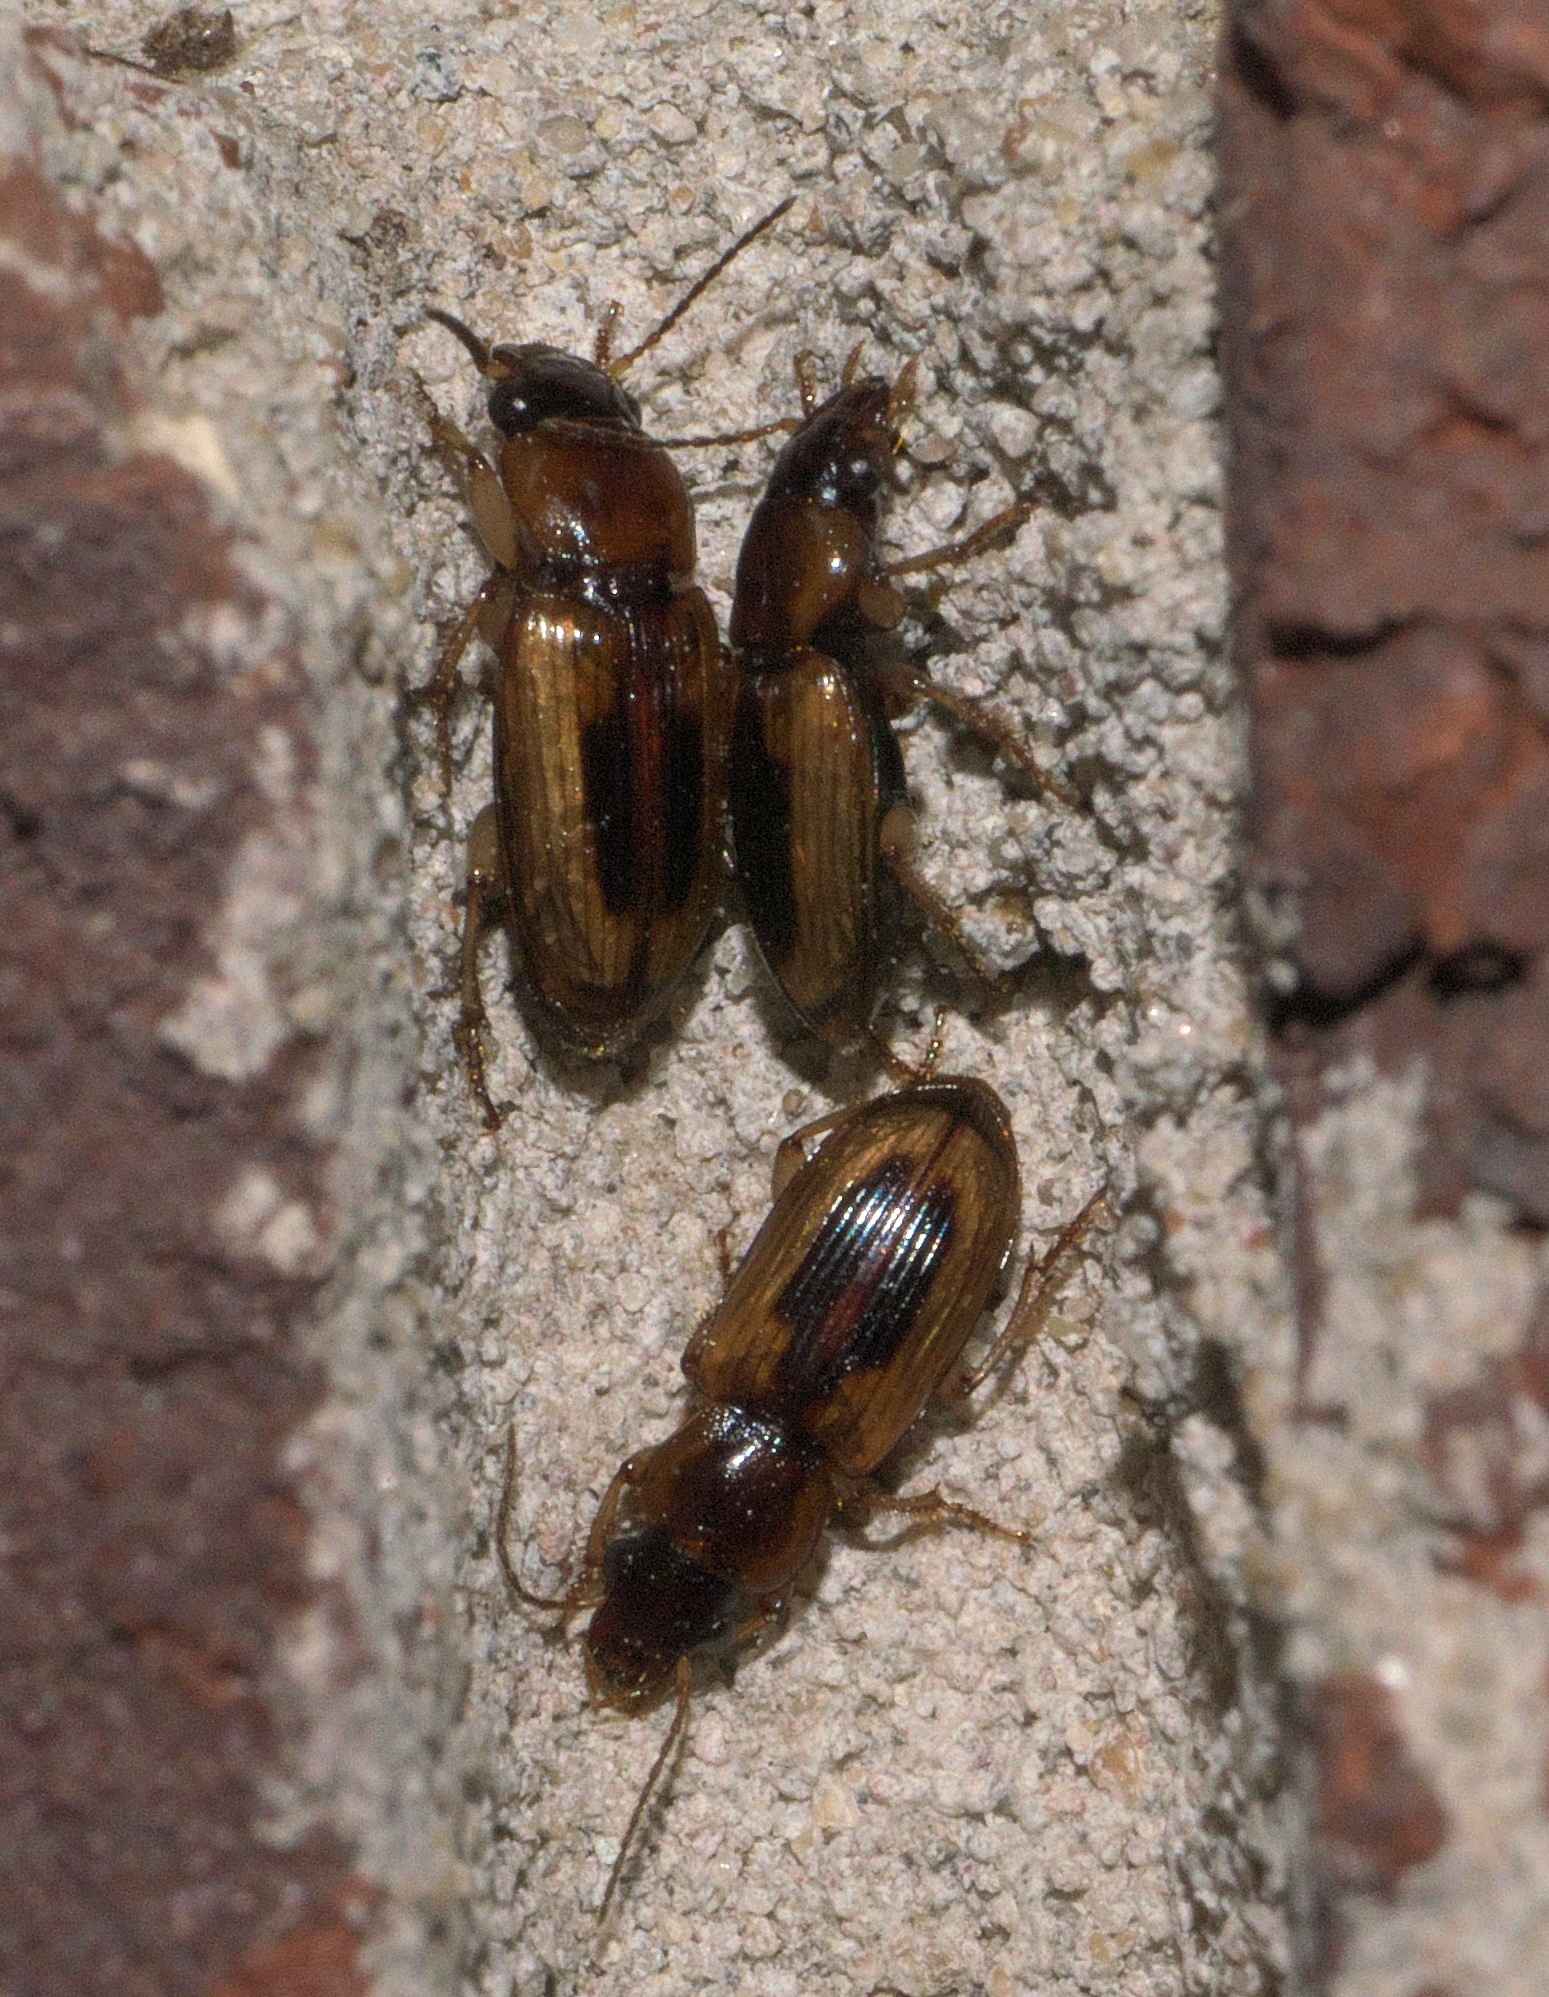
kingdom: Animalia
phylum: Arthropoda
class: Insecta
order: Coleoptera
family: Carabidae
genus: Stenolophus
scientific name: Stenolophus lecontei
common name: Leconte's seedcorn beetle
